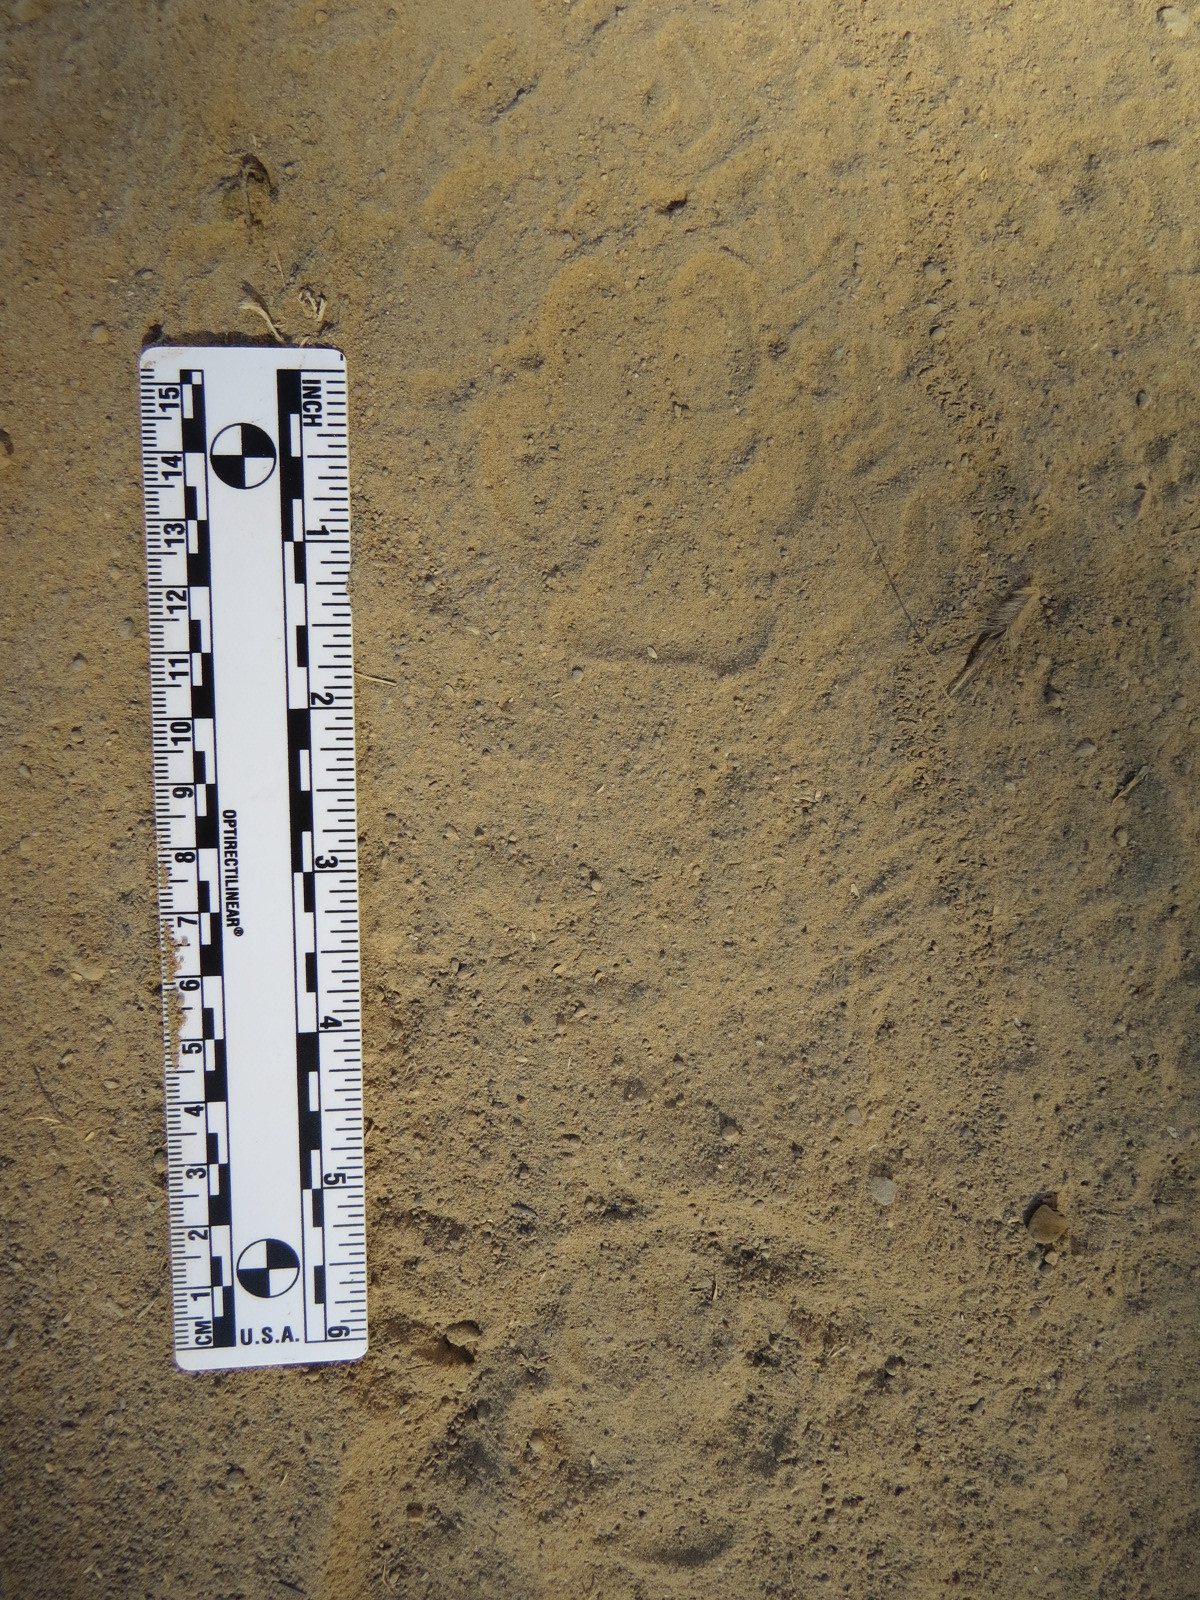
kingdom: Animalia
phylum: Chordata
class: Mammalia
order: Carnivora
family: Canidae
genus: Canis
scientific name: Canis latrans
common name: Coyote
